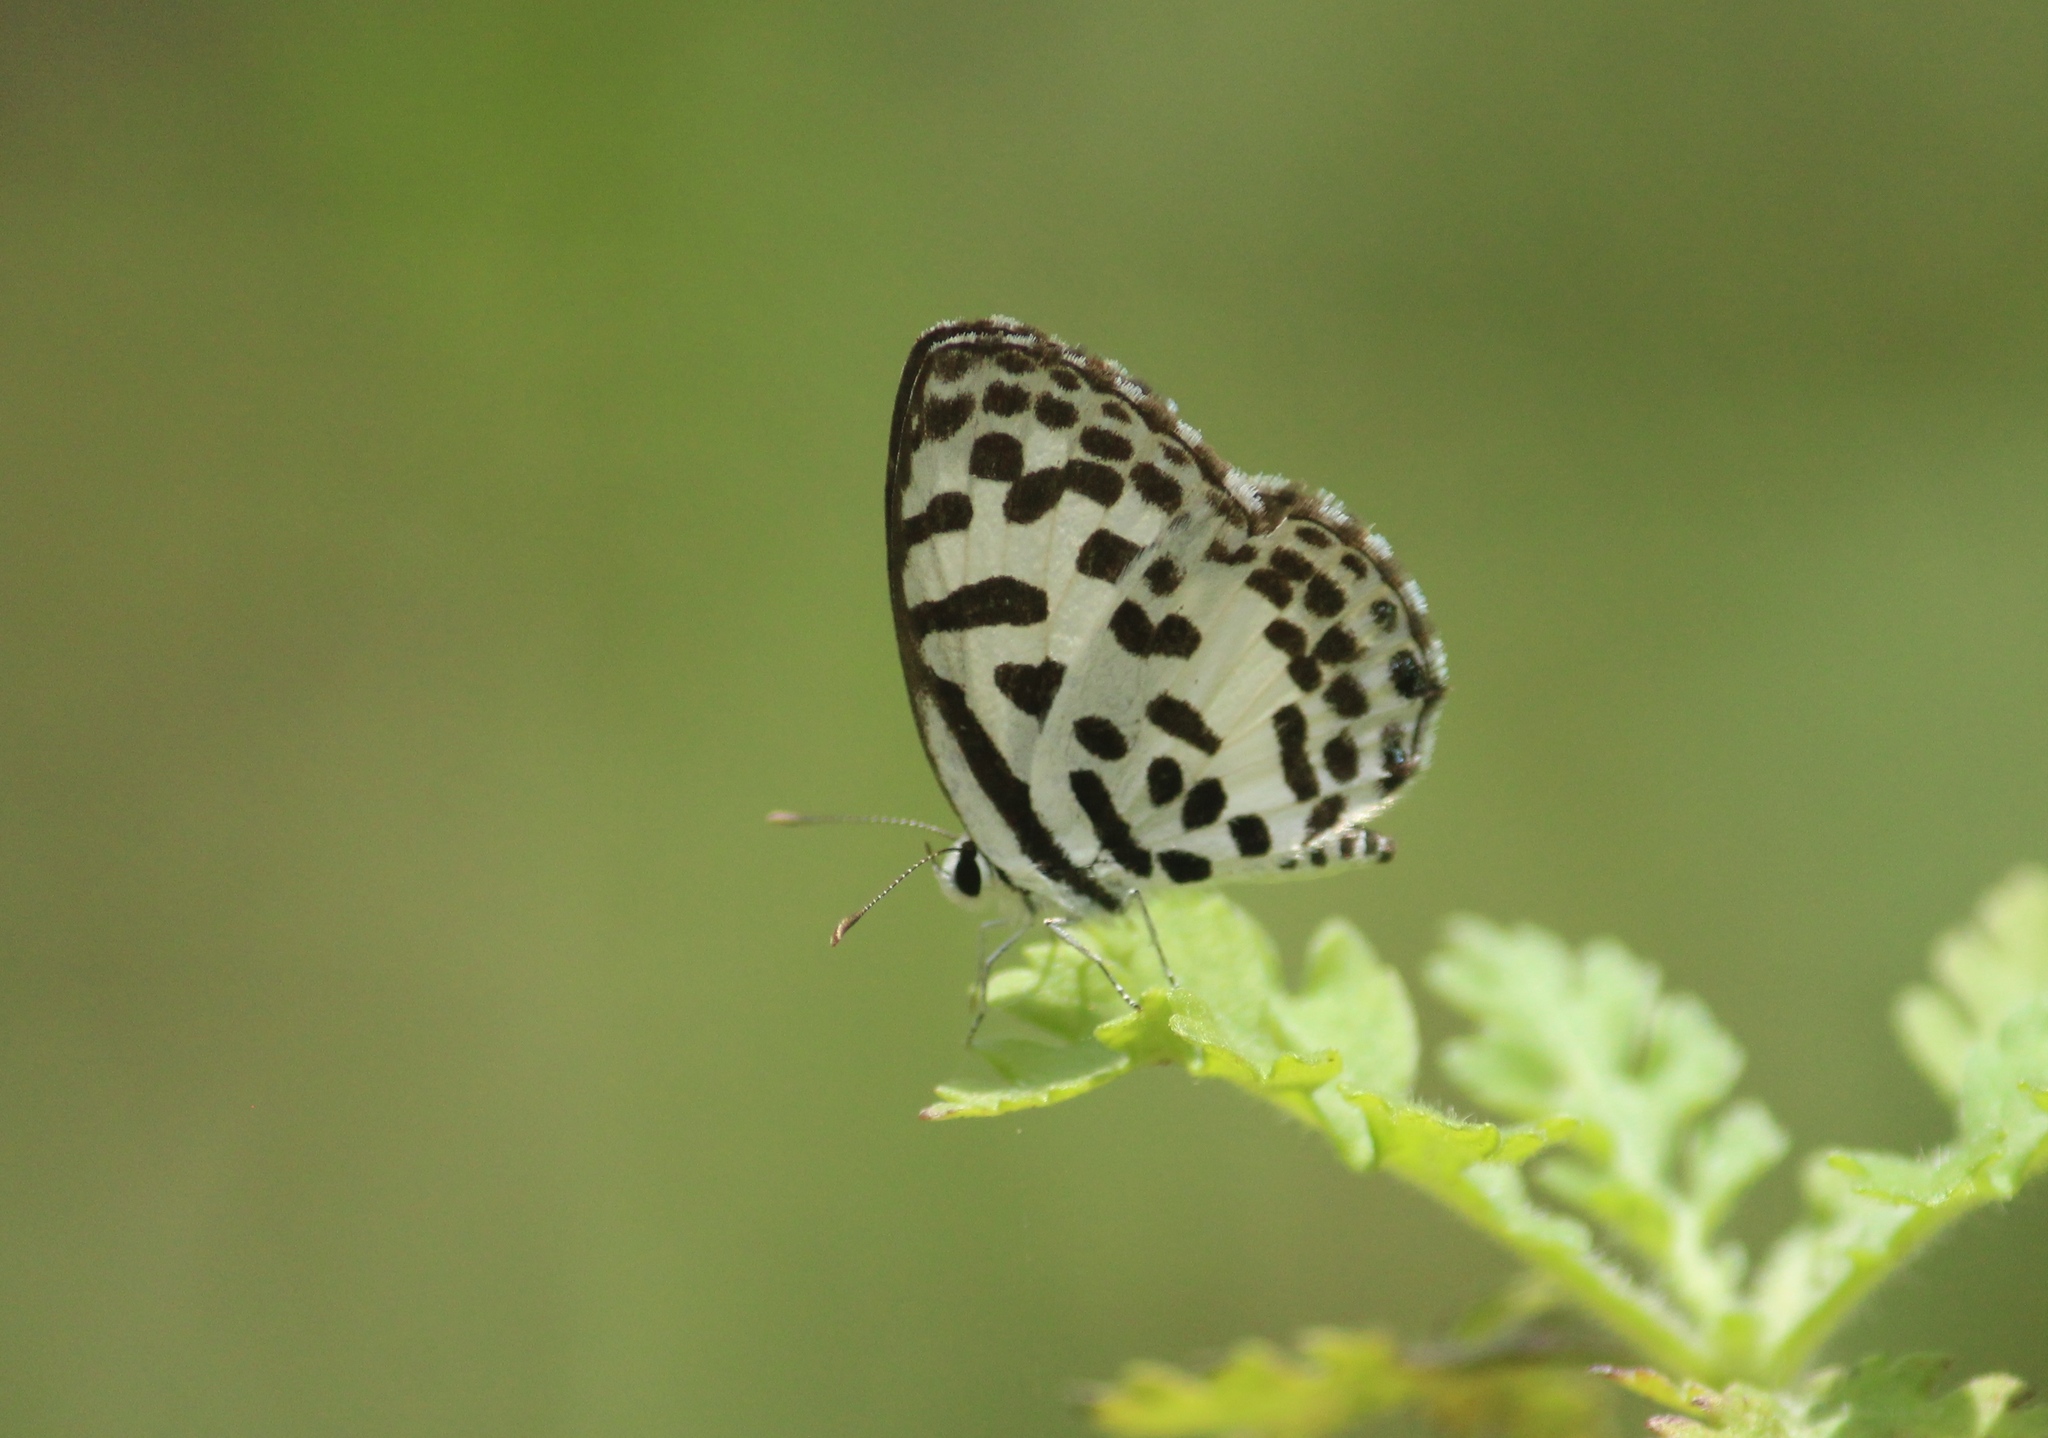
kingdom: Animalia
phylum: Arthropoda
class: Insecta
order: Lepidoptera
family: Lycaenidae
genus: Castalius
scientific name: Castalius rosimon
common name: Common pierrot
